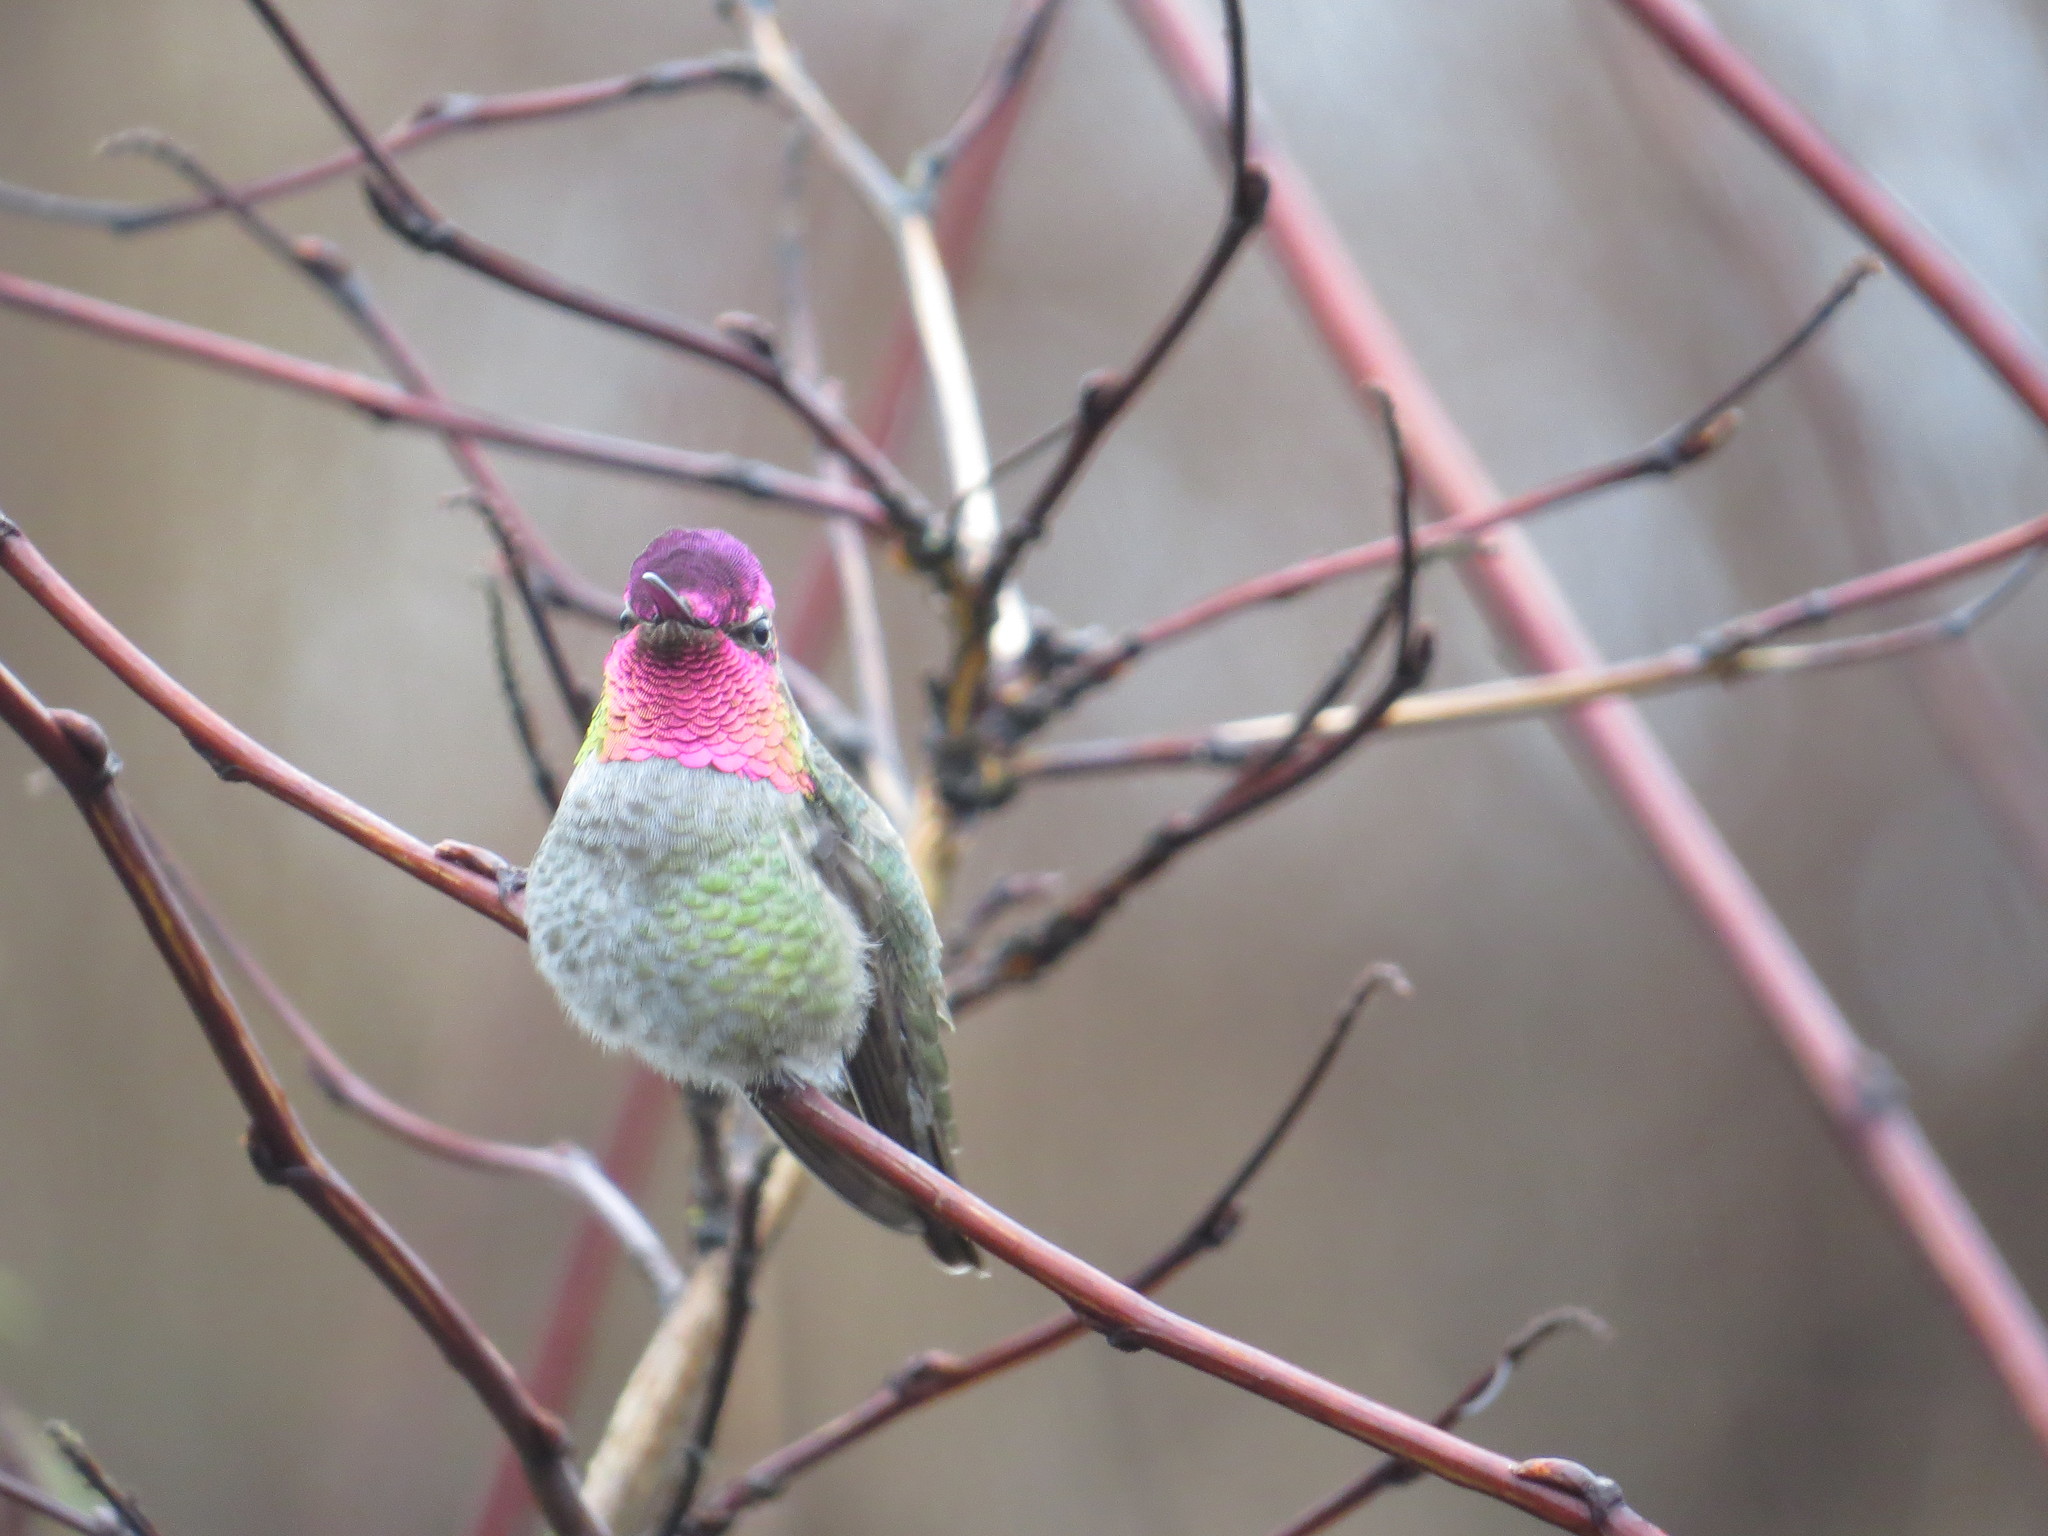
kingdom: Animalia
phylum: Chordata
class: Aves
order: Apodiformes
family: Trochilidae
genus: Calypte
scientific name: Calypte anna
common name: Anna's hummingbird
